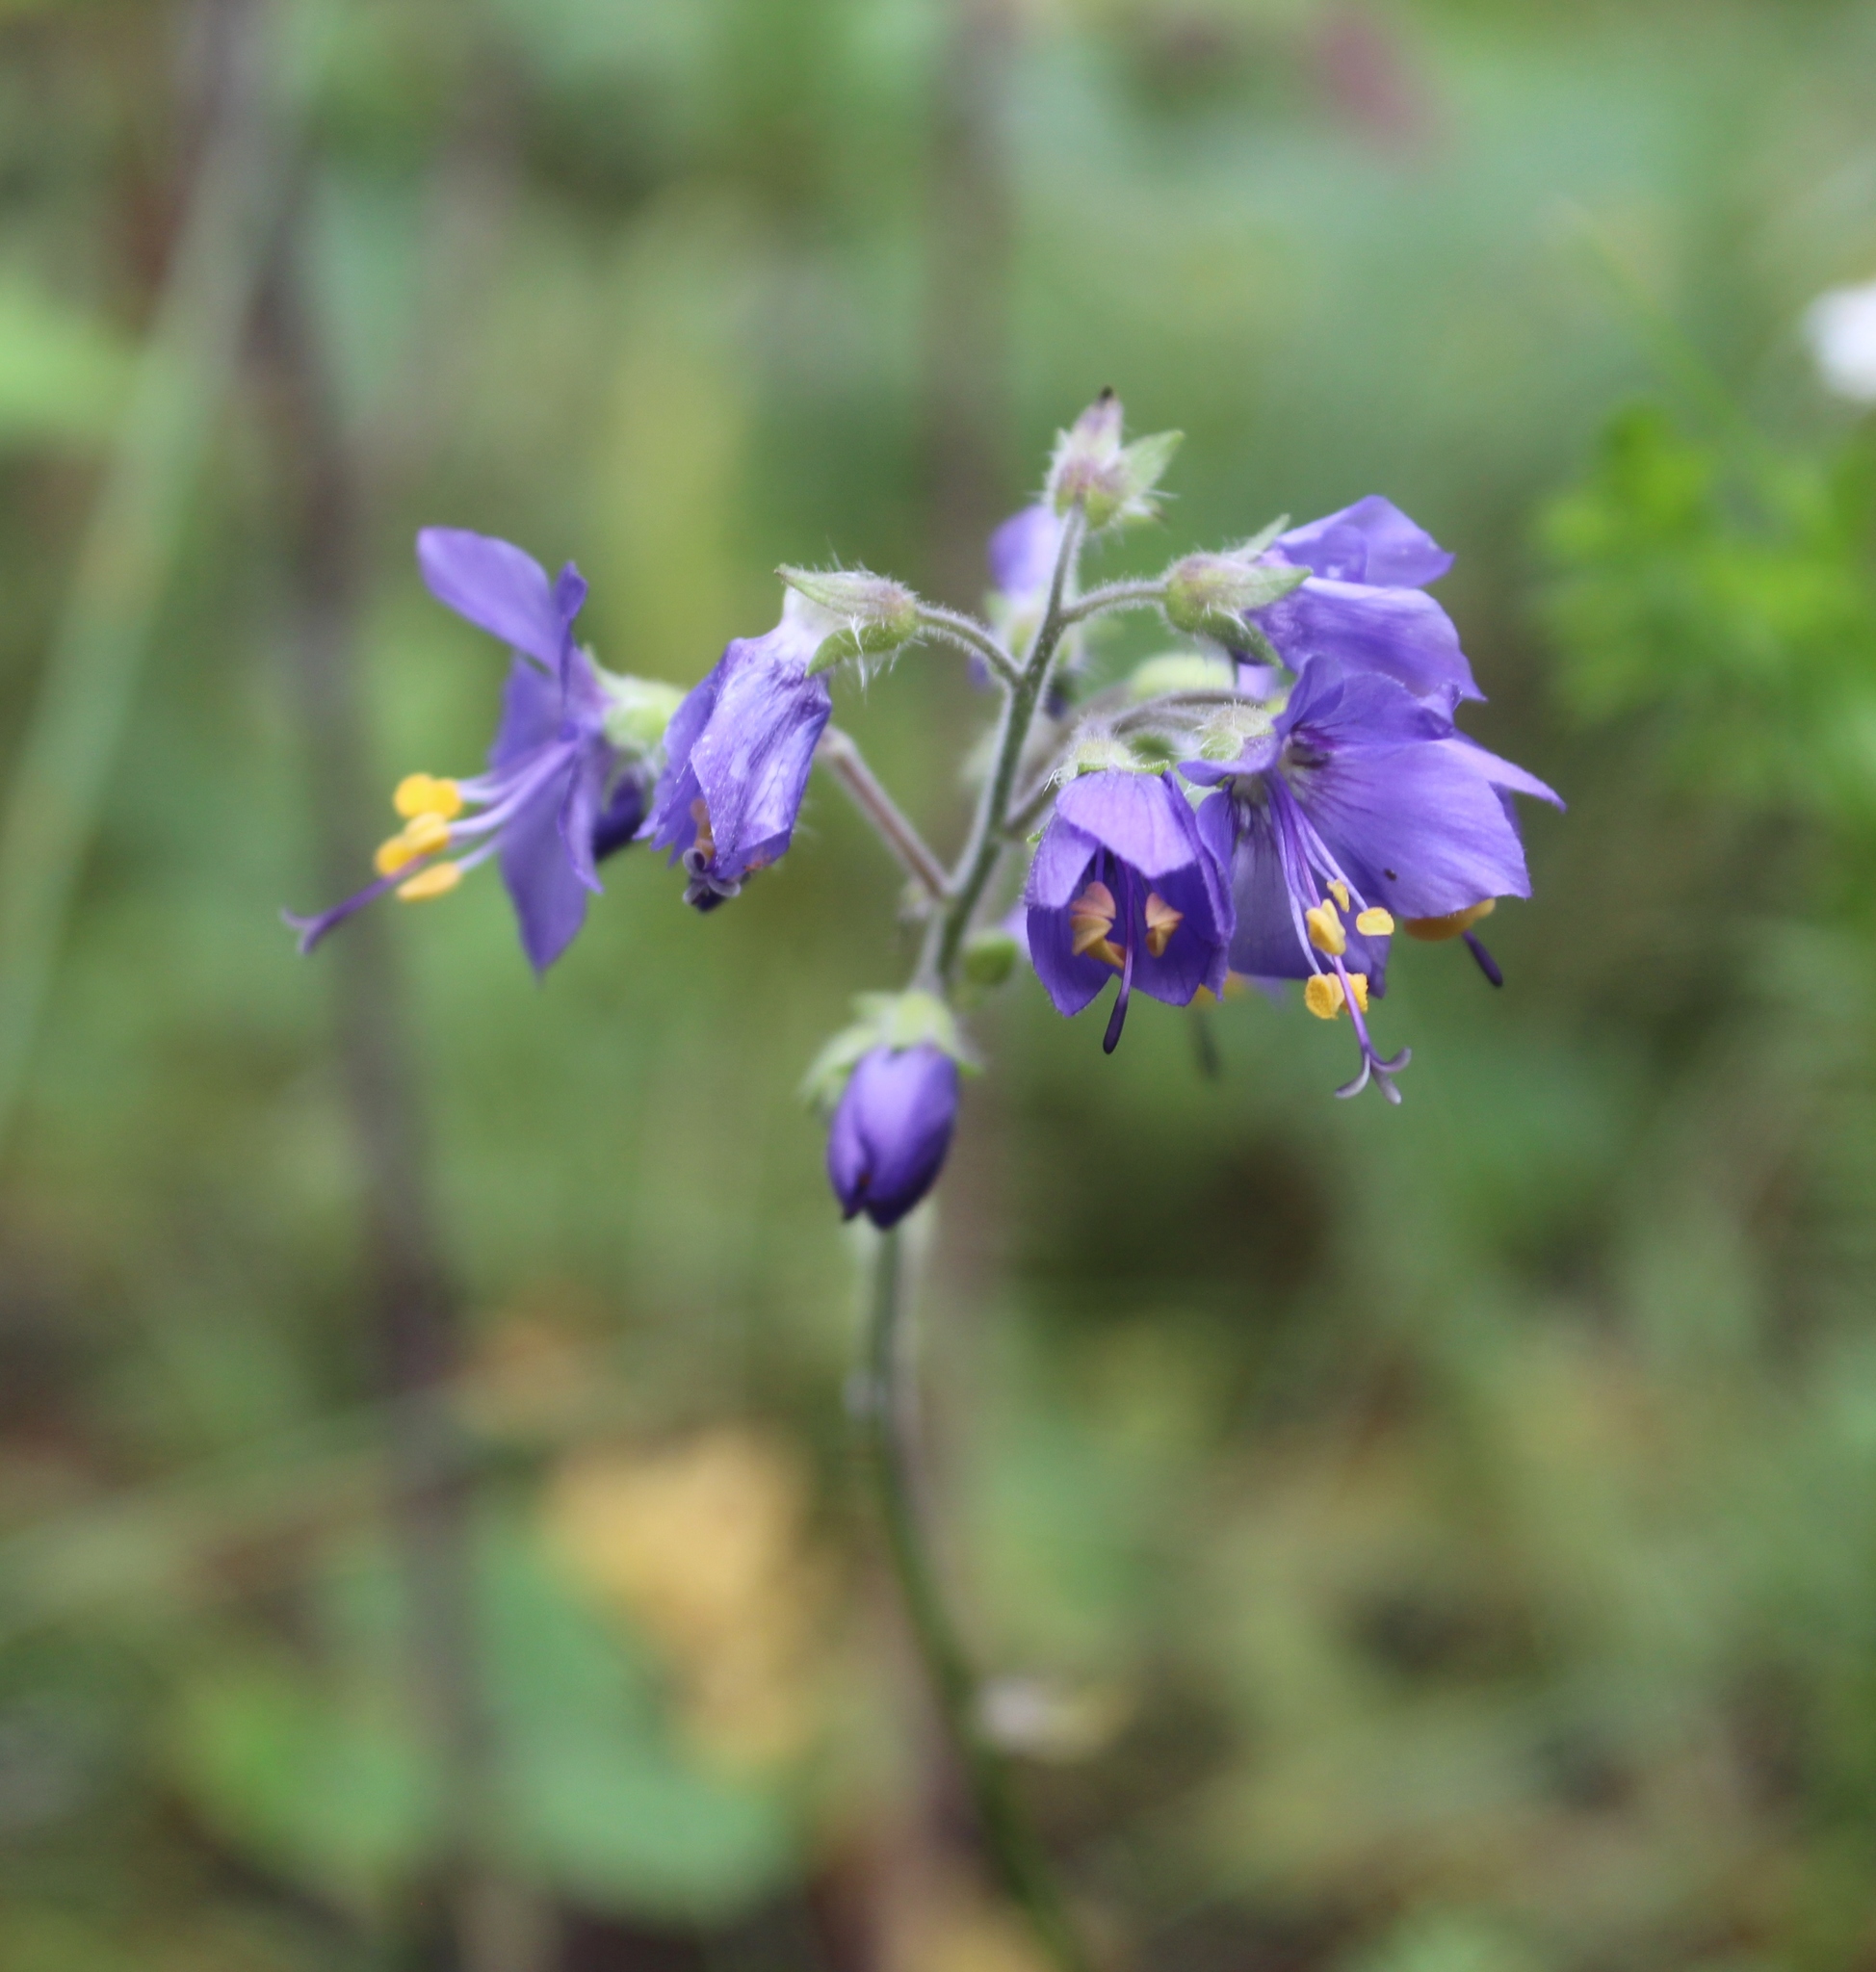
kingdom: Plantae
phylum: Tracheophyta
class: Magnoliopsida
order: Ericales
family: Polemoniaceae
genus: Polemonium
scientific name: Polemonium acutiflorum
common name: Tall jacob's-ladder
